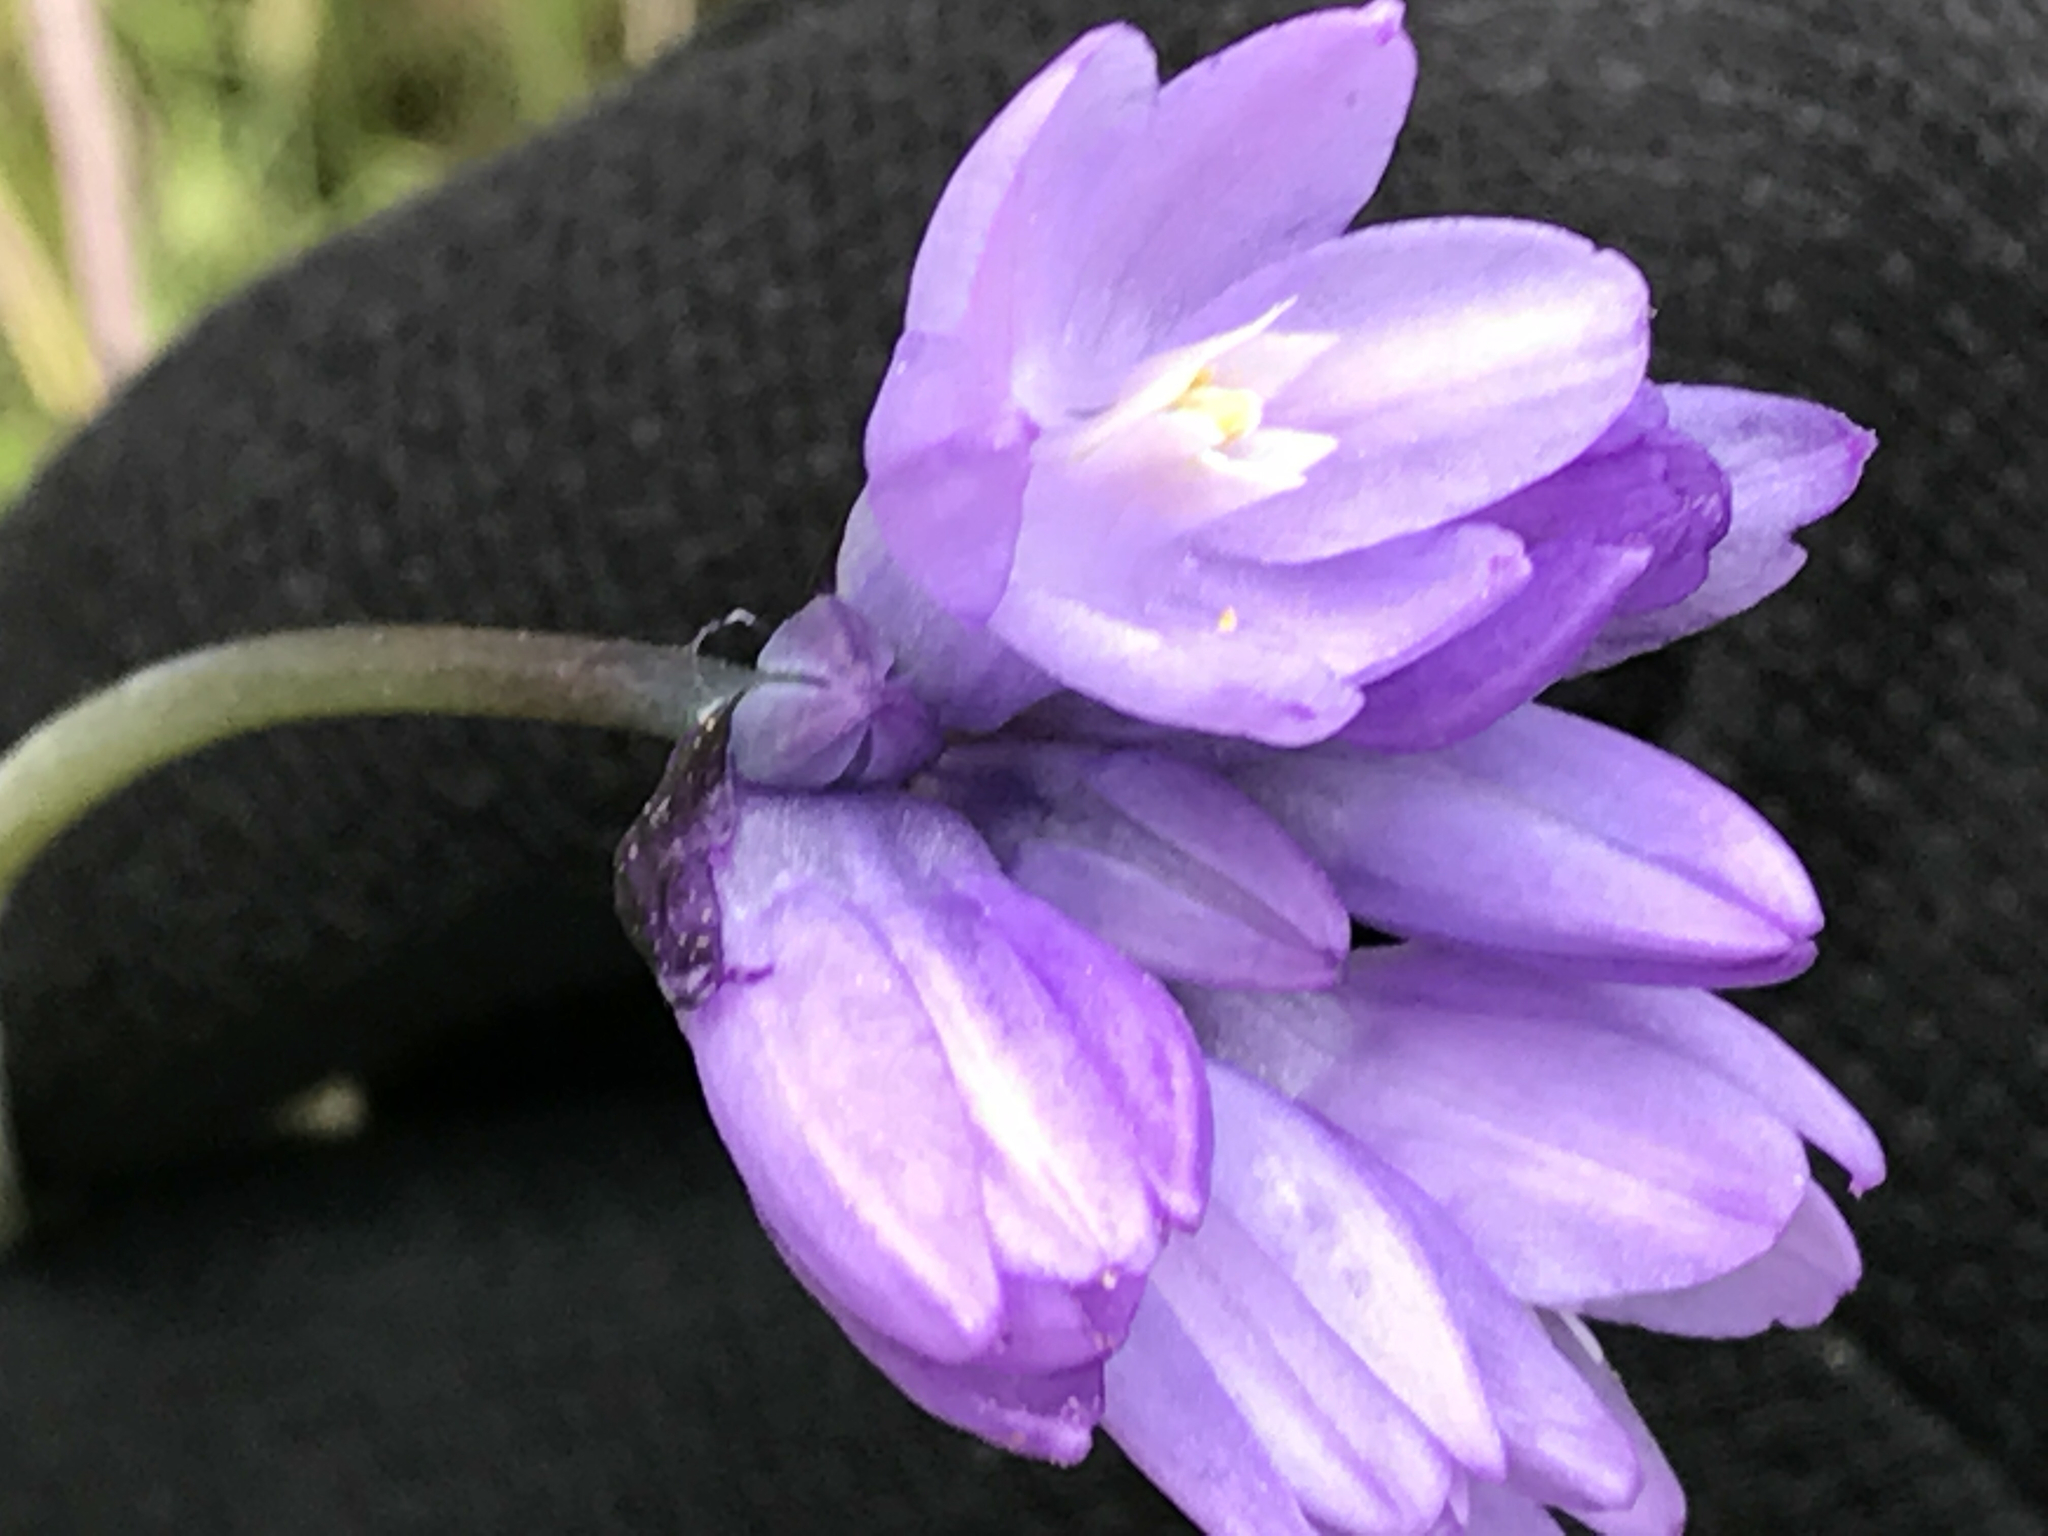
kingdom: Plantae
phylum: Tracheophyta
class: Liliopsida
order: Asparagales
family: Asparagaceae
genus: Dipterostemon
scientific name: Dipterostemon capitatus
